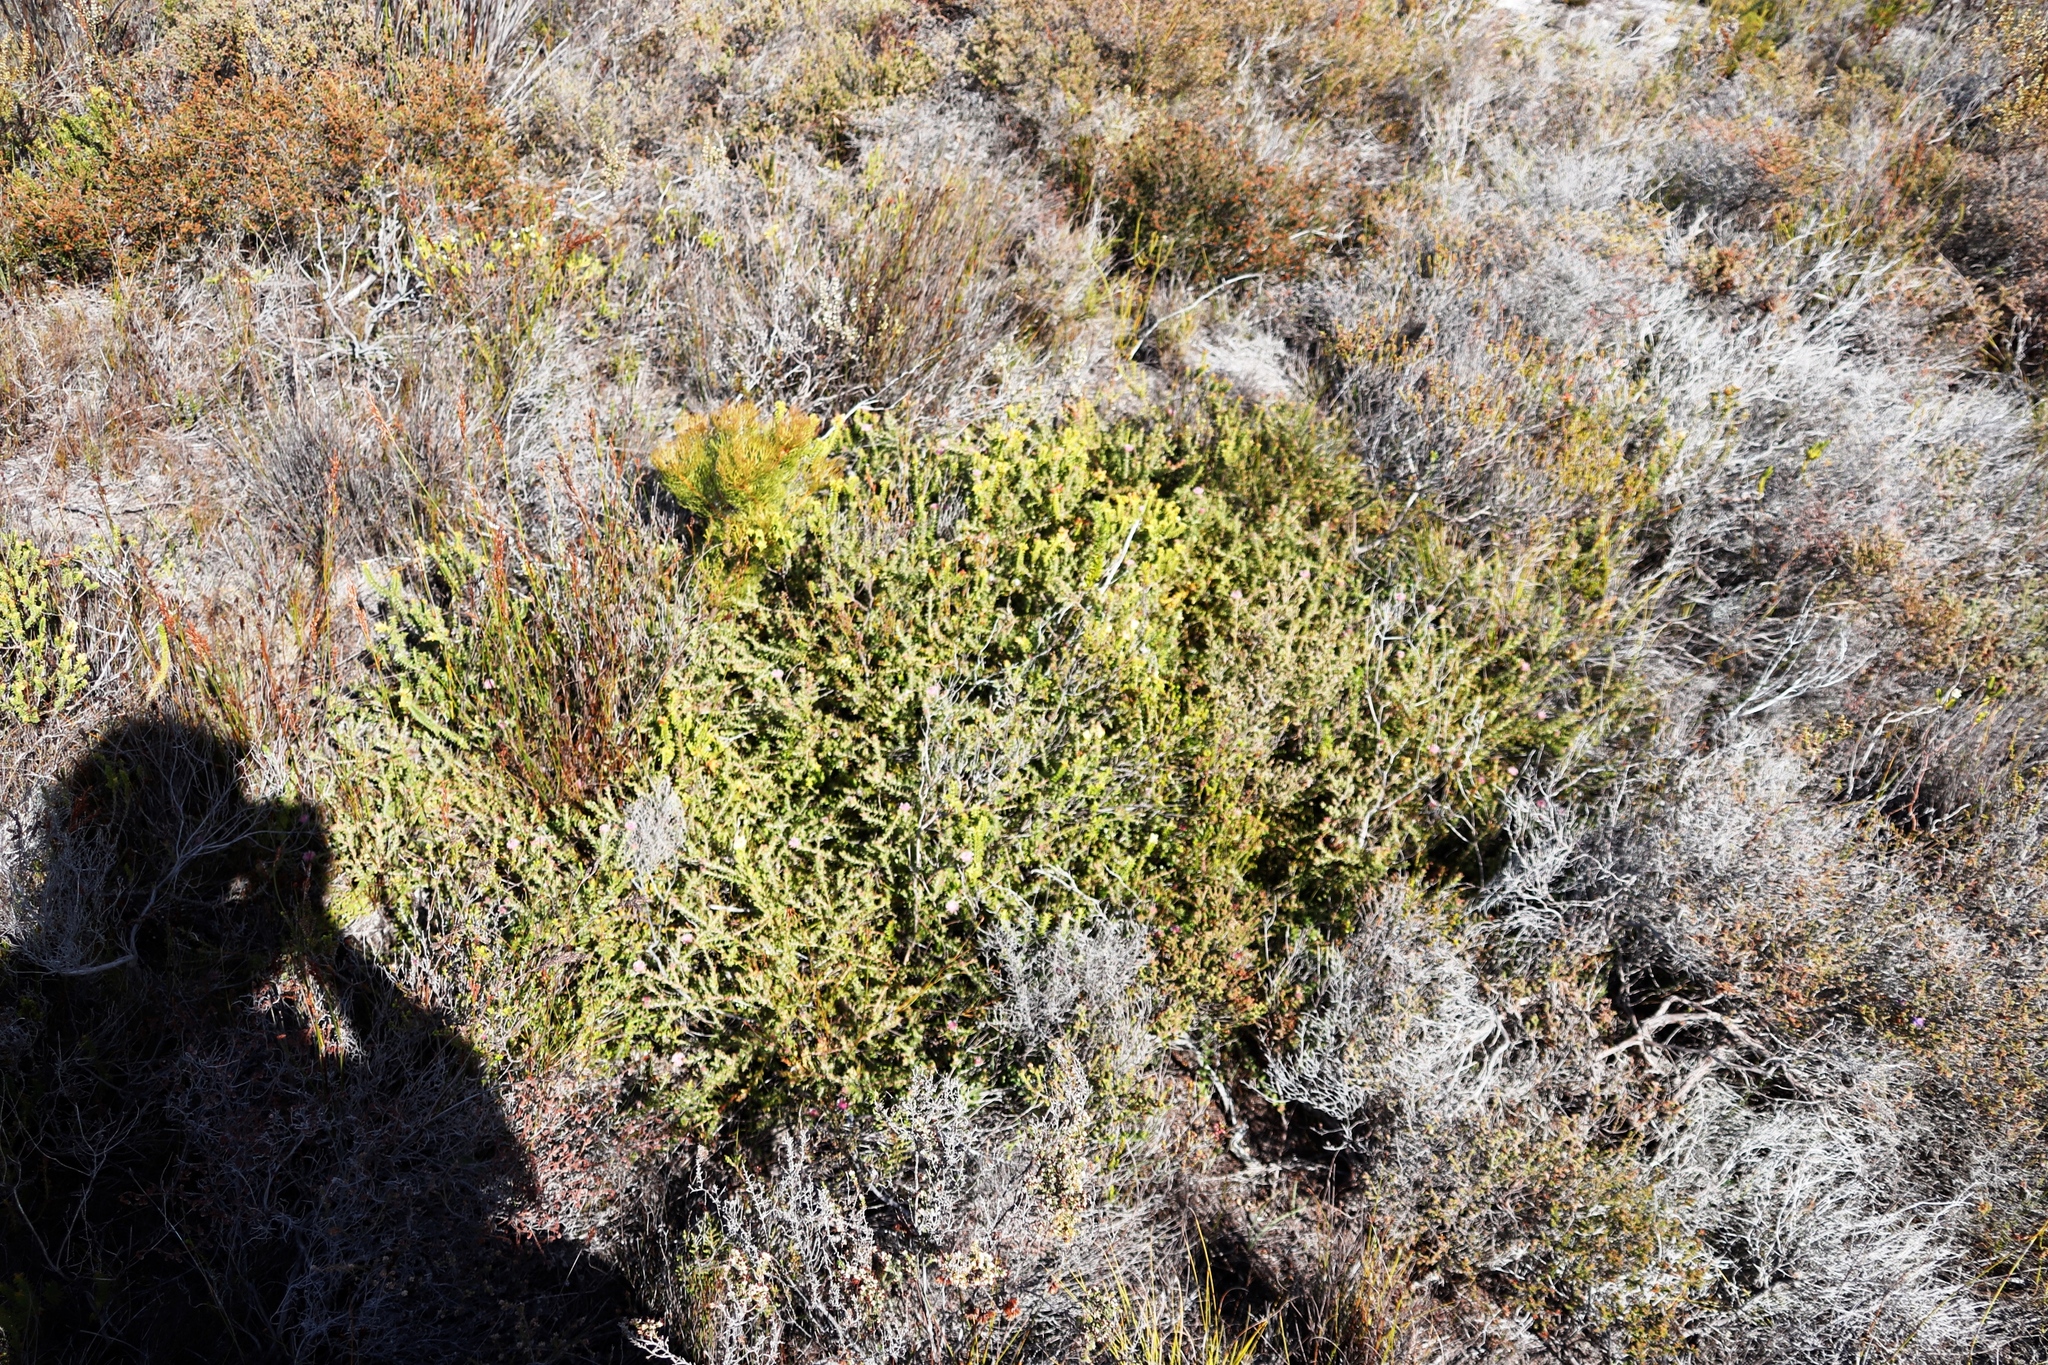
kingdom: Plantae
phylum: Tracheophyta
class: Magnoliopsida
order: Proteales
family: Proteaceae
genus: Diastella
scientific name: Diastella divaricata
